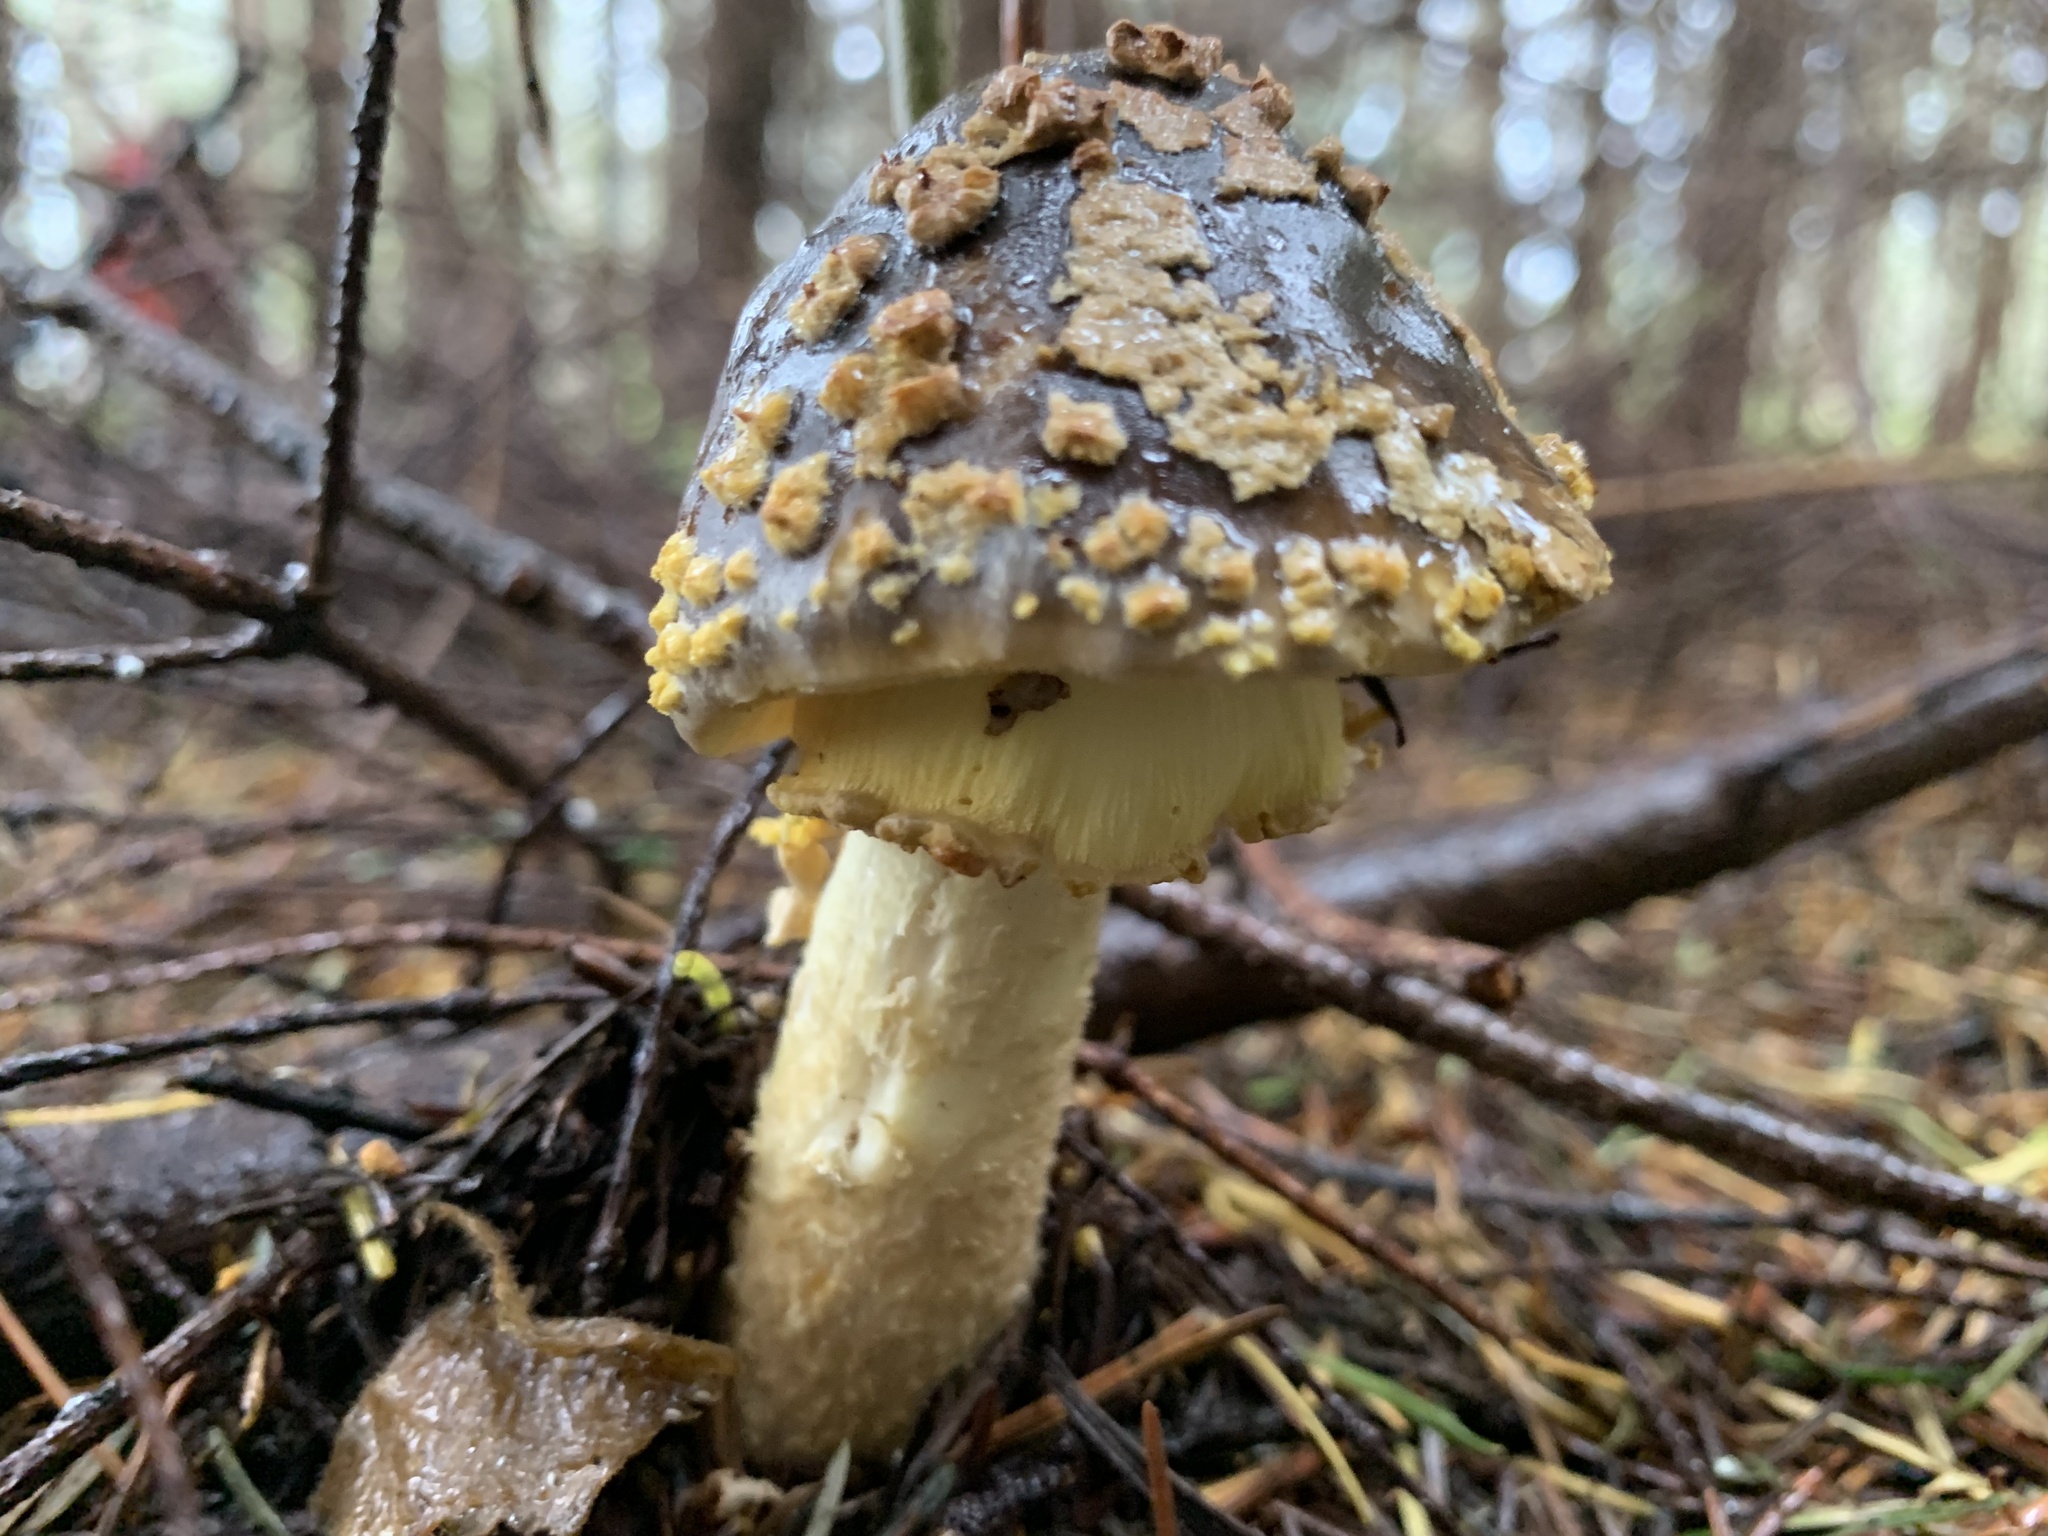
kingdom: Fungi
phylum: Basidiomycota
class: Agaricomycetes
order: Agaricales
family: Amanitaceae
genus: Amanita
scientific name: Amanita augusta
